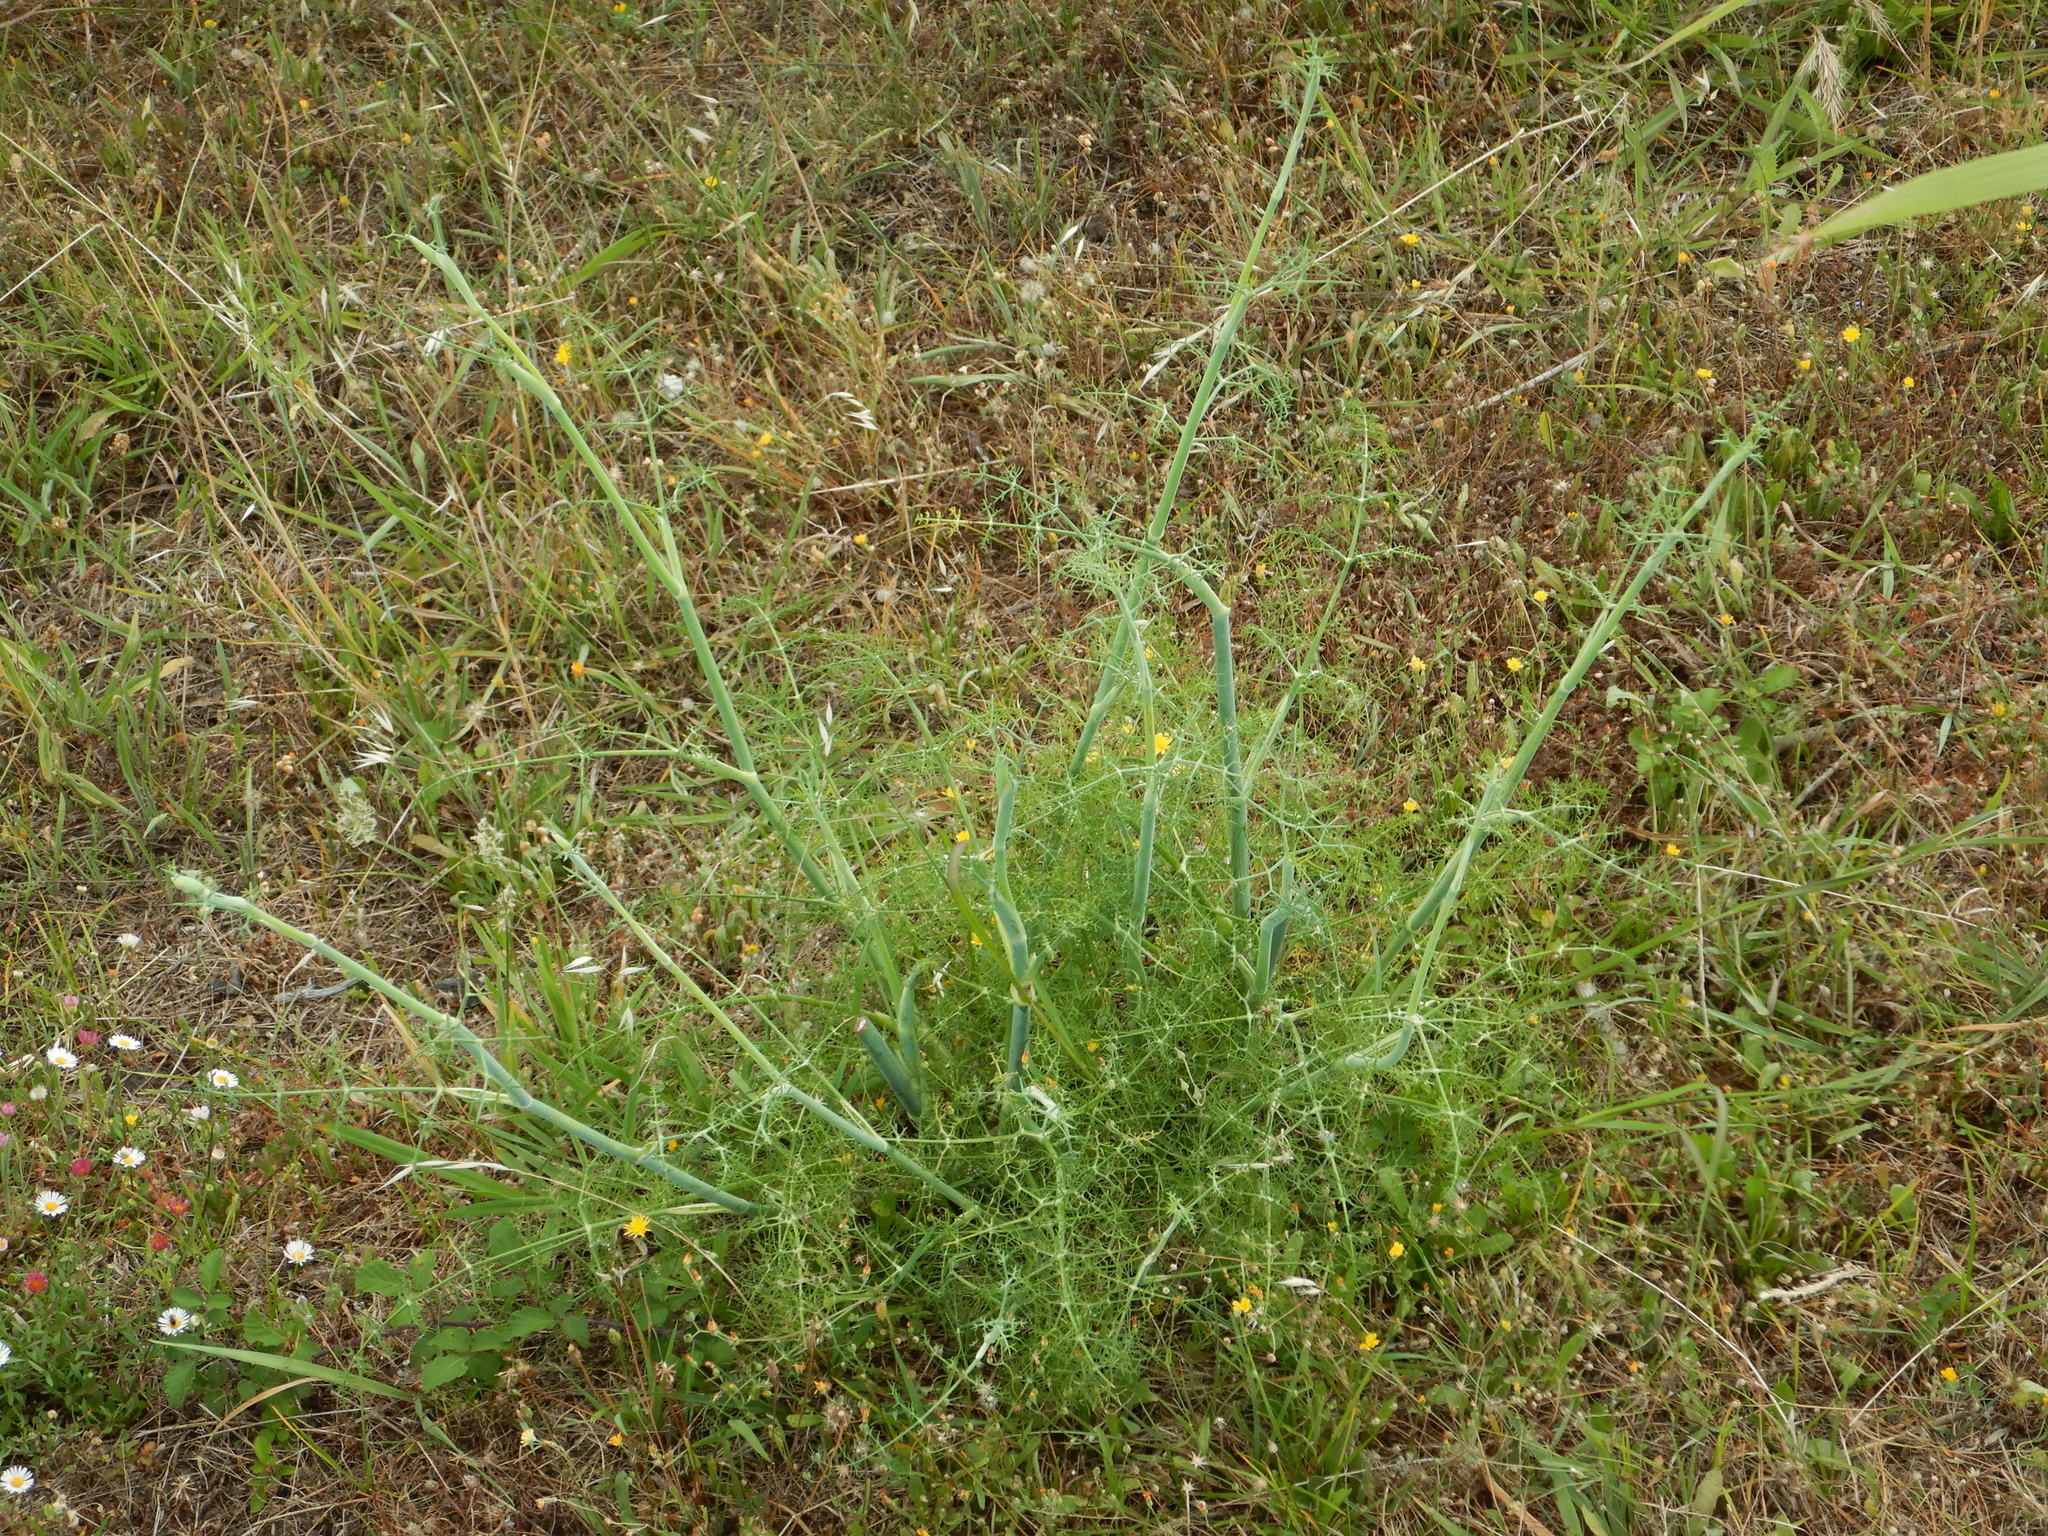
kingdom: Plantae
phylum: Tracheophyta
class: Magnoliopsida
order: Apiales
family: Apiaceae
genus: Foeniculum
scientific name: Foeniculum vulgare
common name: Fennel
